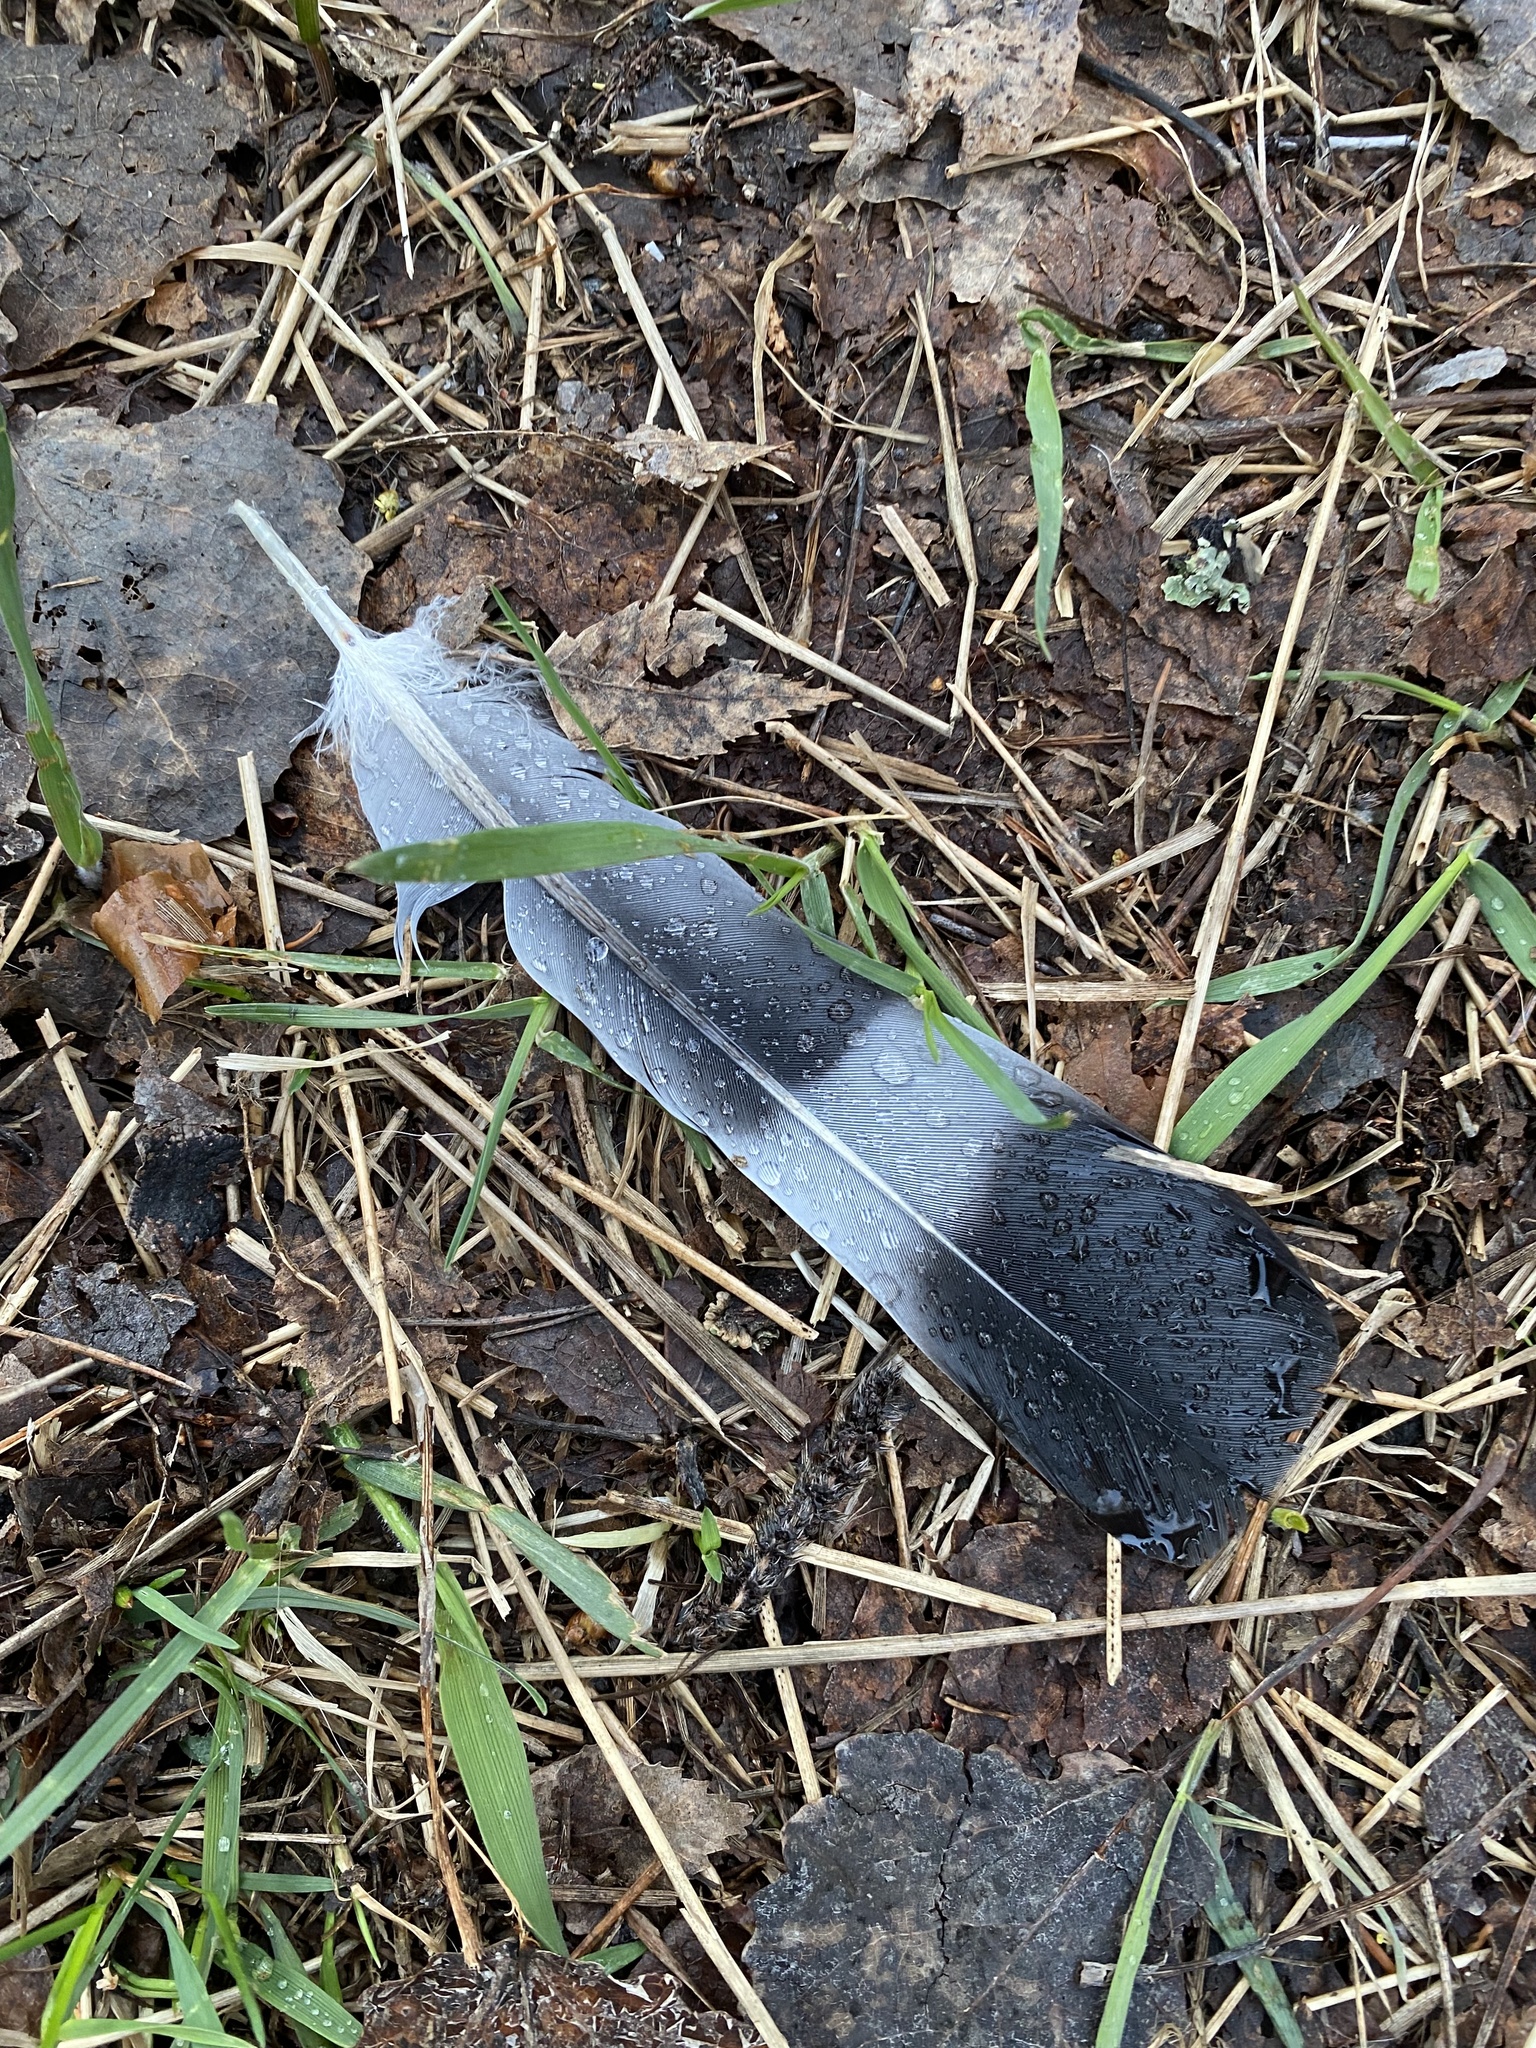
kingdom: Animalia
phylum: Chordata
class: Aves
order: Columbiformes
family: Columbidae
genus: Columba
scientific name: Columba palumbus
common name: Common wood pigeon
